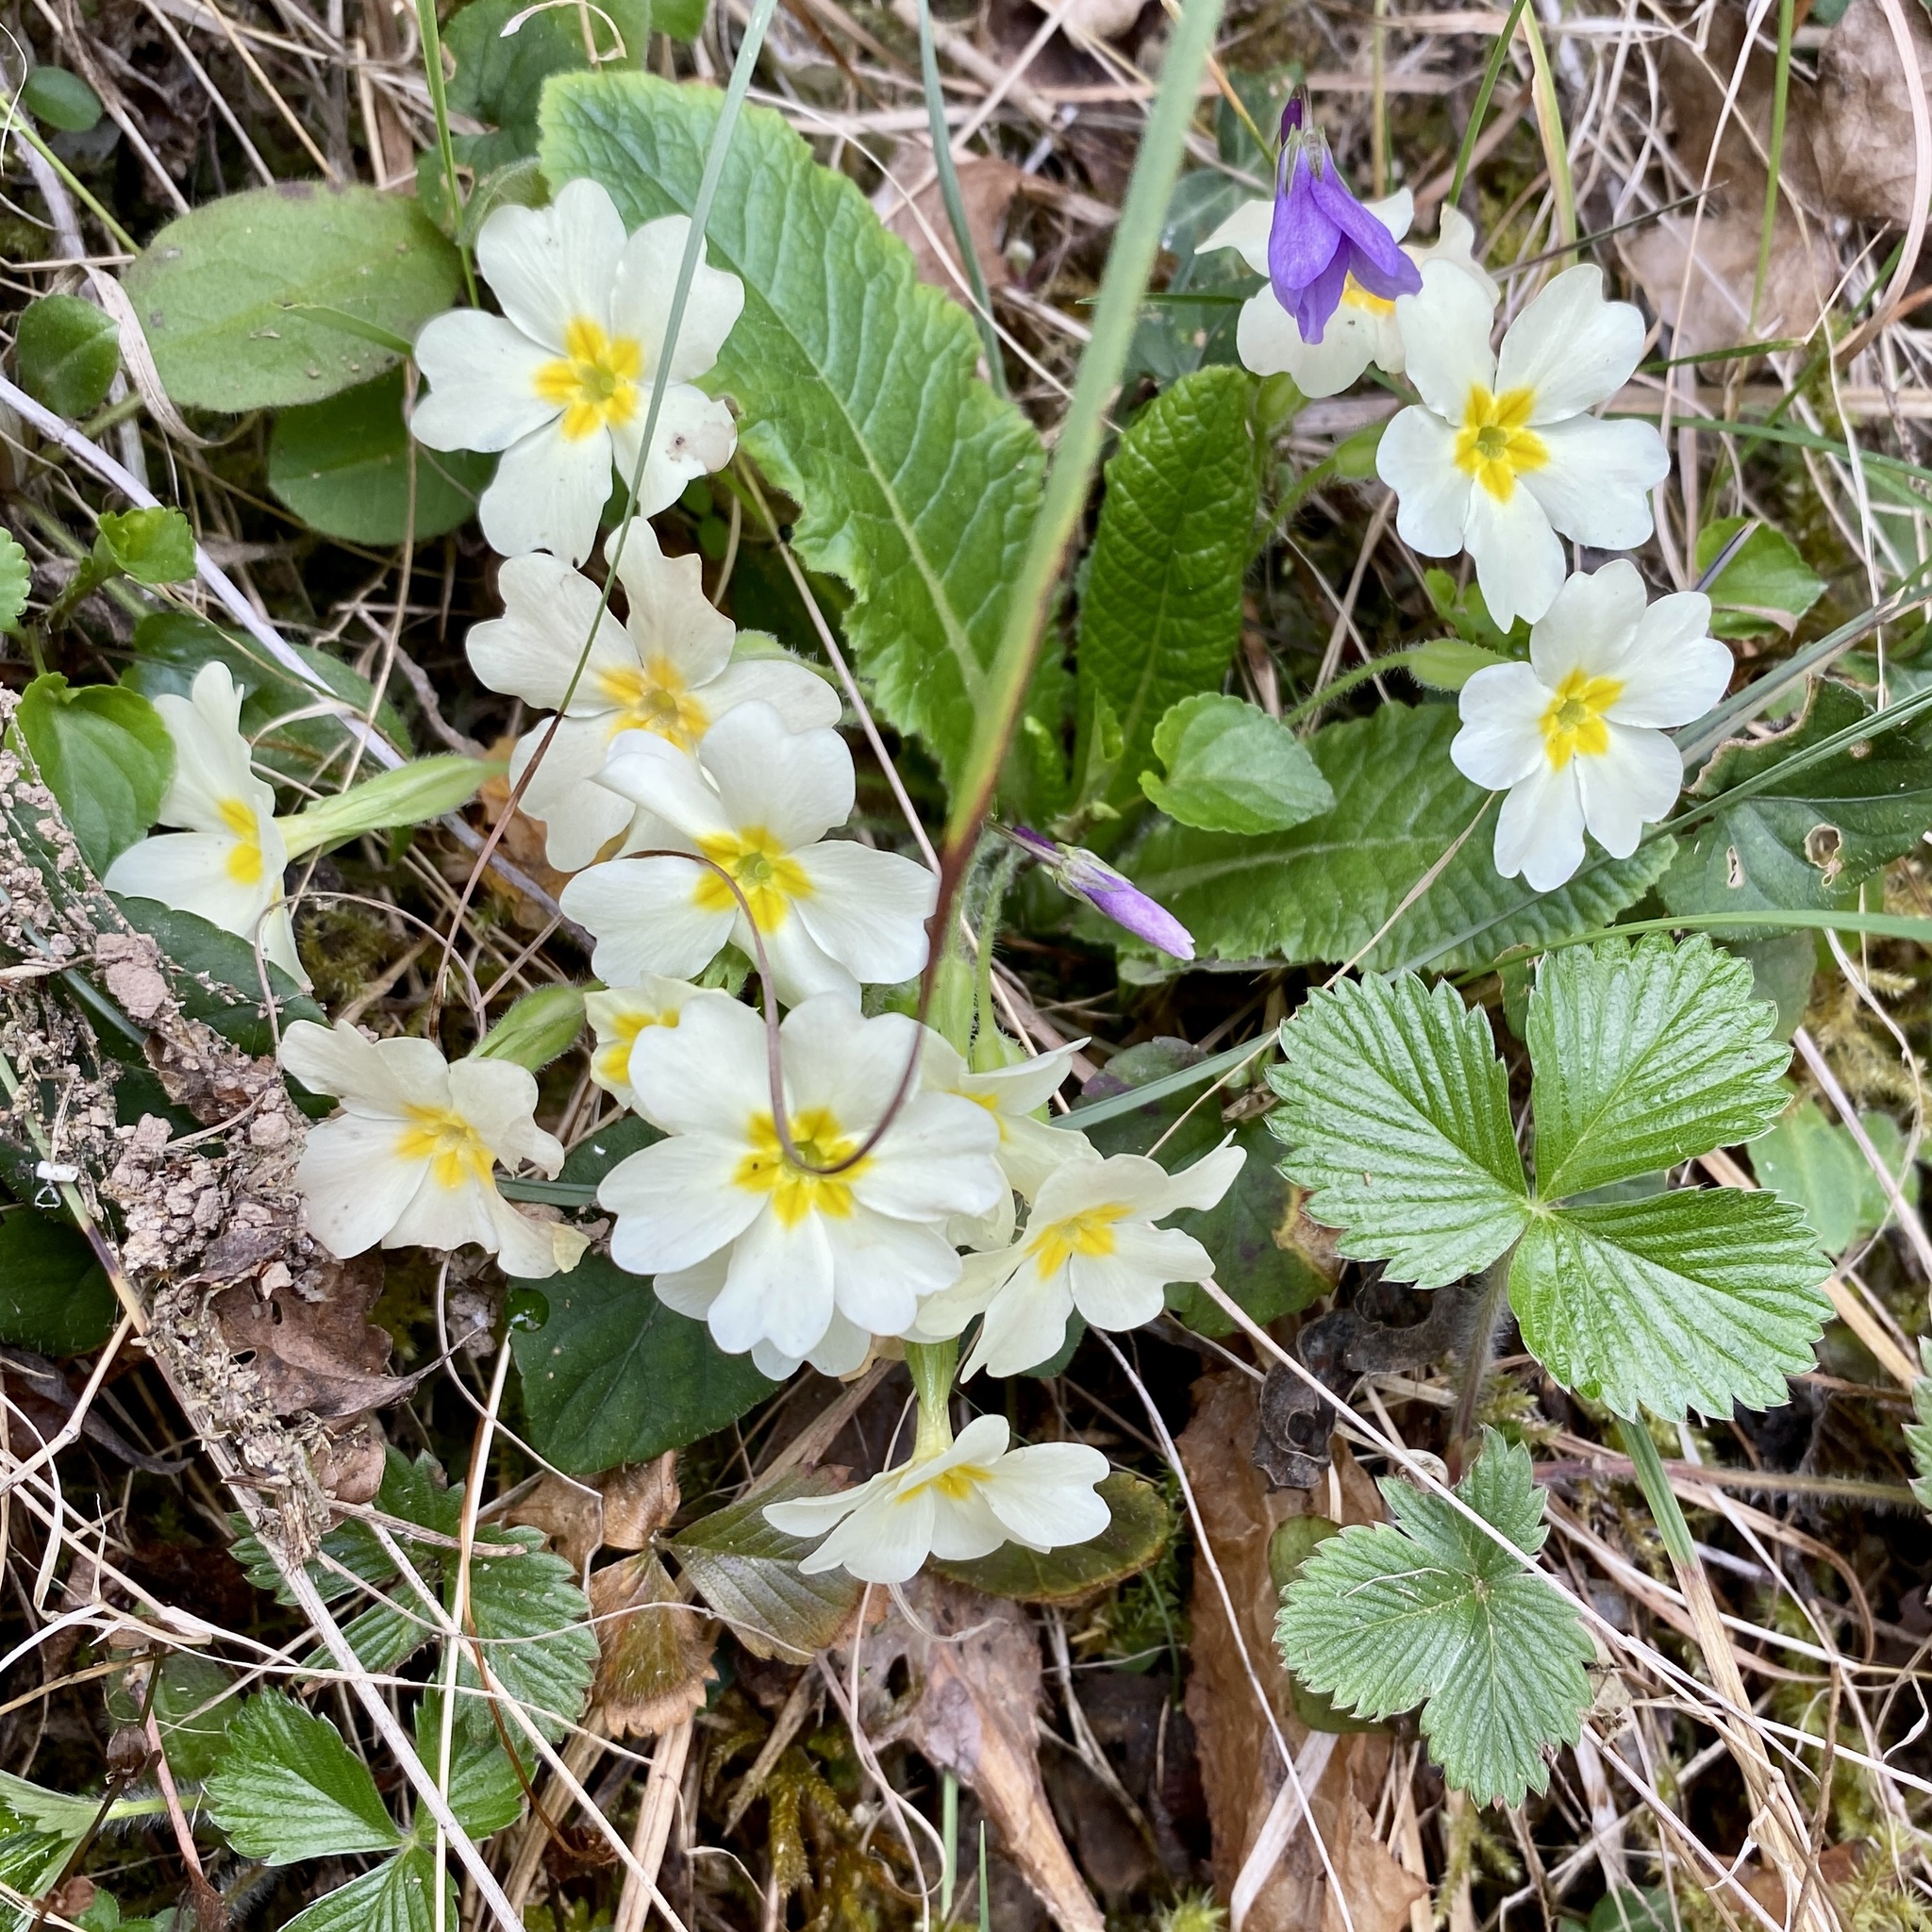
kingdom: Plantae
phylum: Tracheophyta
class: Magnoliopsida
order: Ericales
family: Primulaceae
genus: Primula
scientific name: Primula vulgaris
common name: Primrose
